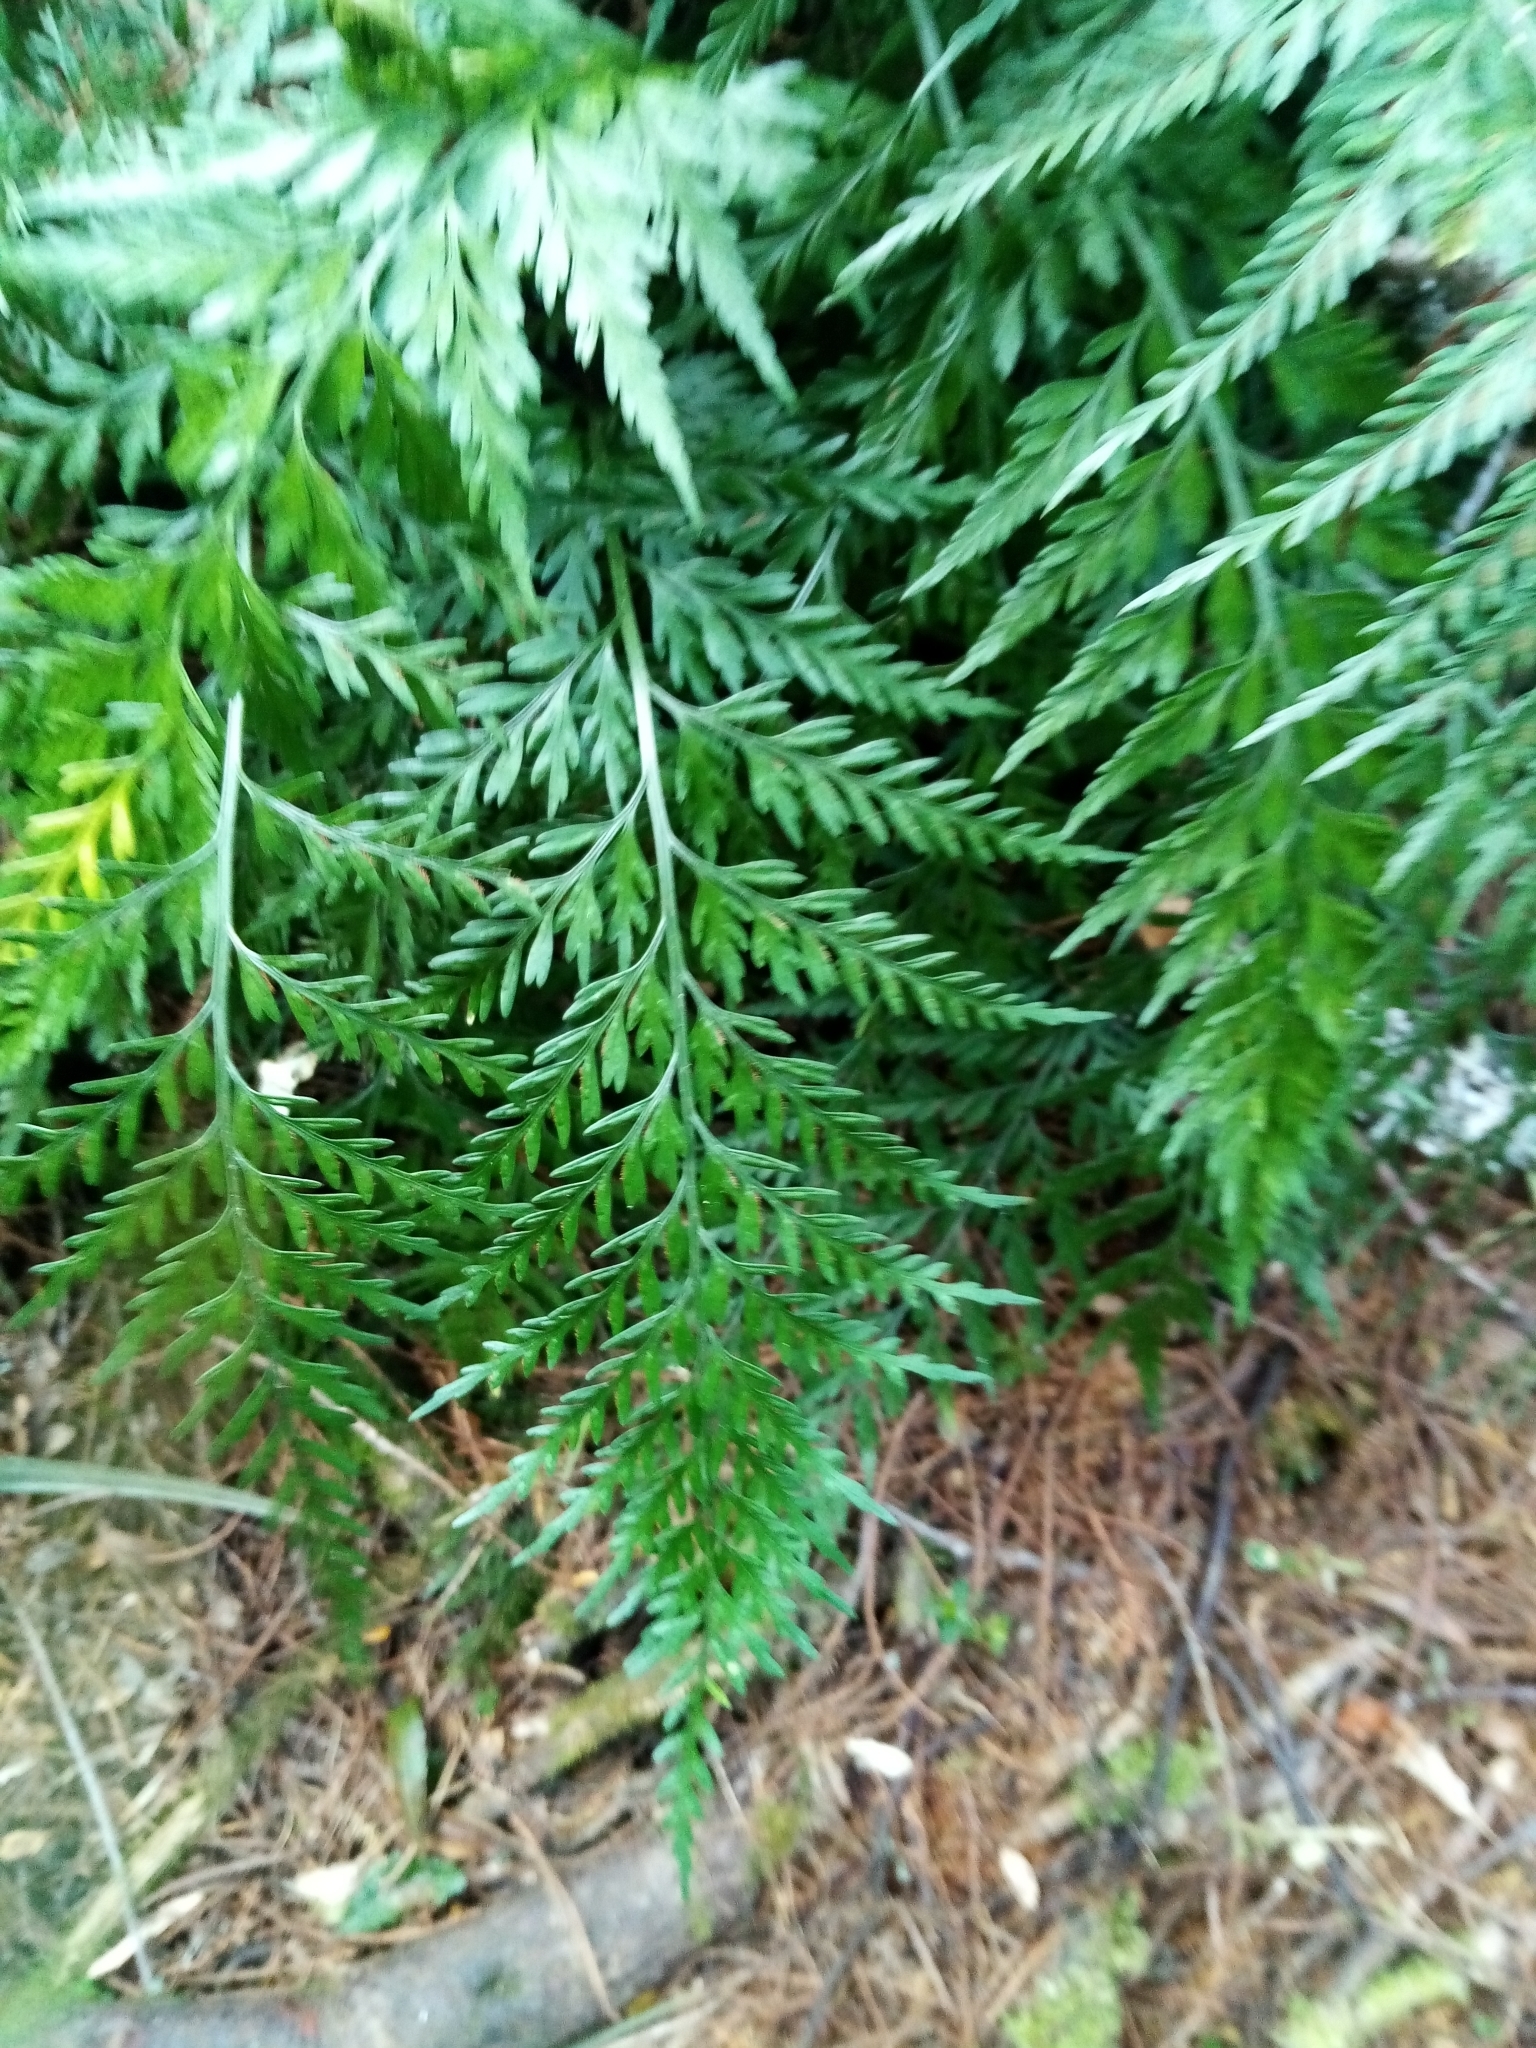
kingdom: Plantae
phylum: Tracheophyta
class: Polypodiopsida
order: Polypodiales
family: Aspleniaceae
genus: Asplenium
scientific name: Asplenium appendiculatum
